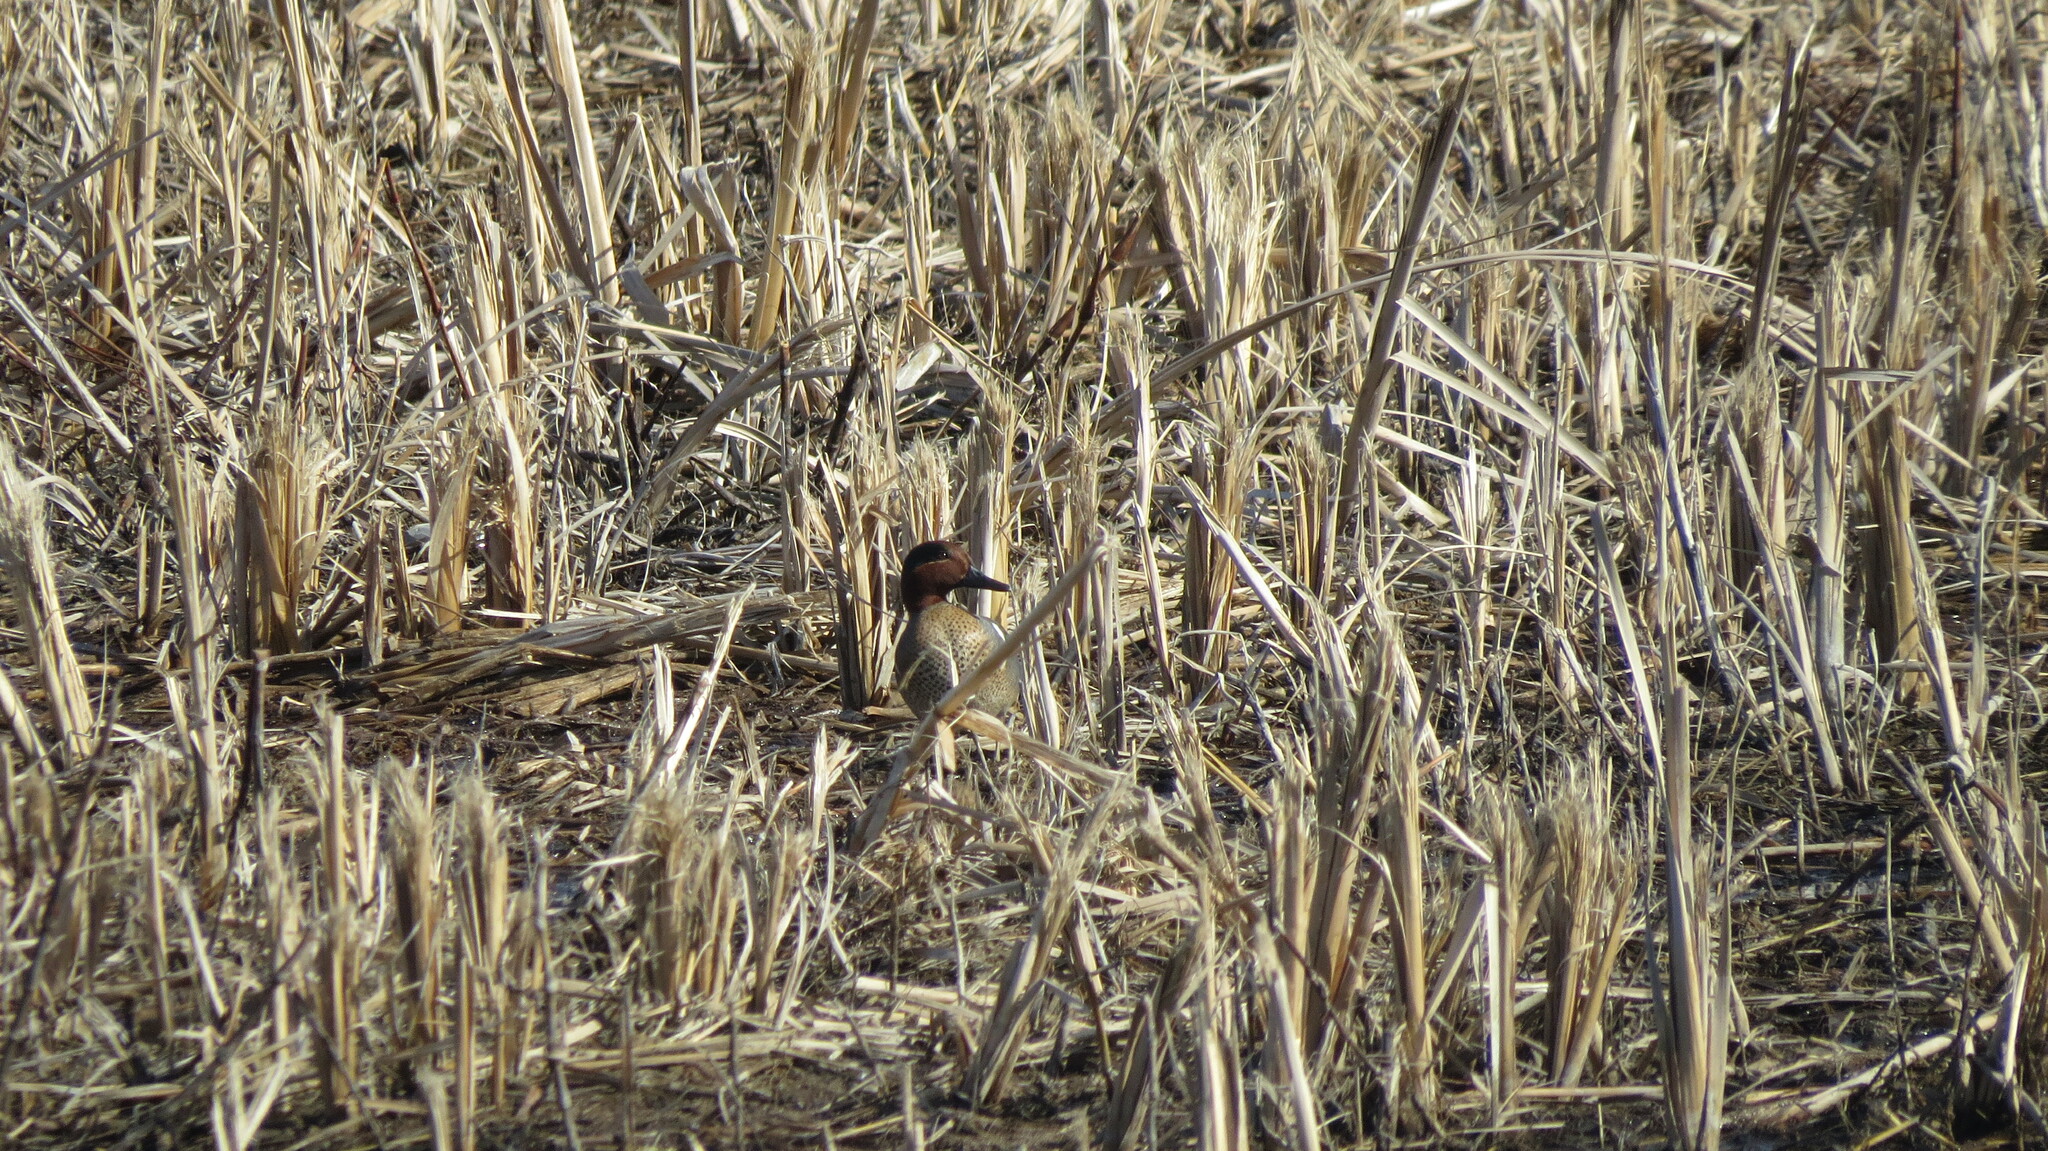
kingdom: Animalia
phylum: Chordata
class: Aves
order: Anseriformes
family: Anatidae
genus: Anas
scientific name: Anas crecca
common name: Eurasian teal
